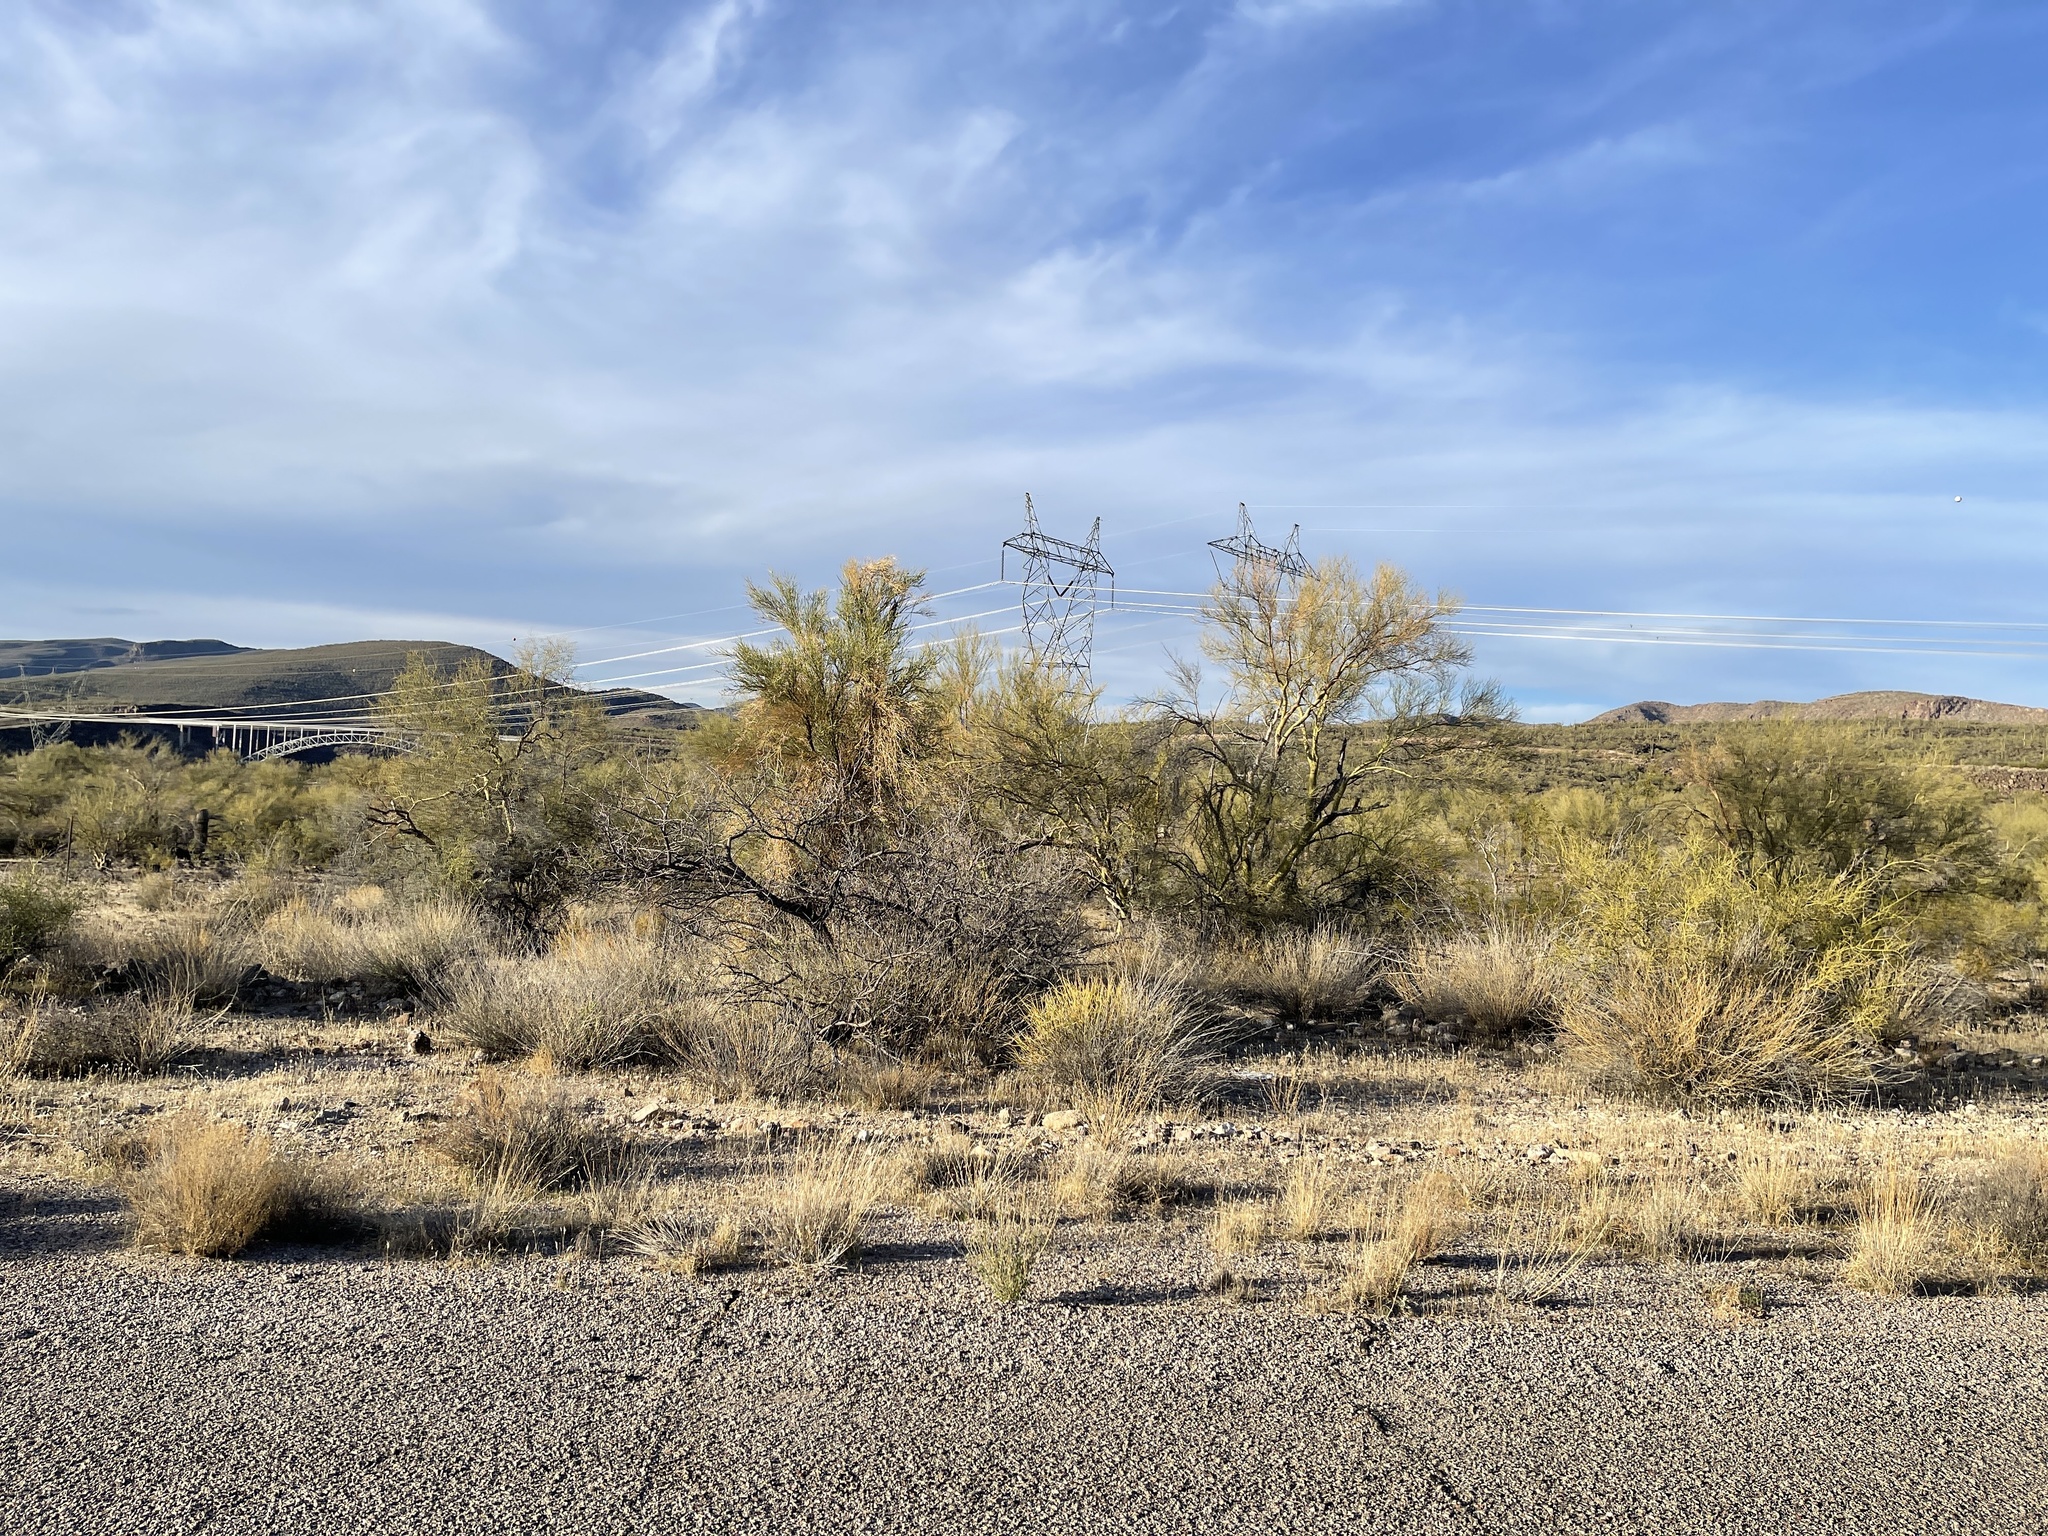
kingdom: Plantae
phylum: Tracheophyta
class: Magnoliopsida
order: Fabales
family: Fabaceae
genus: Parkinsonia
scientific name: Parkinsonia microphylla
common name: Yellow paloverde
